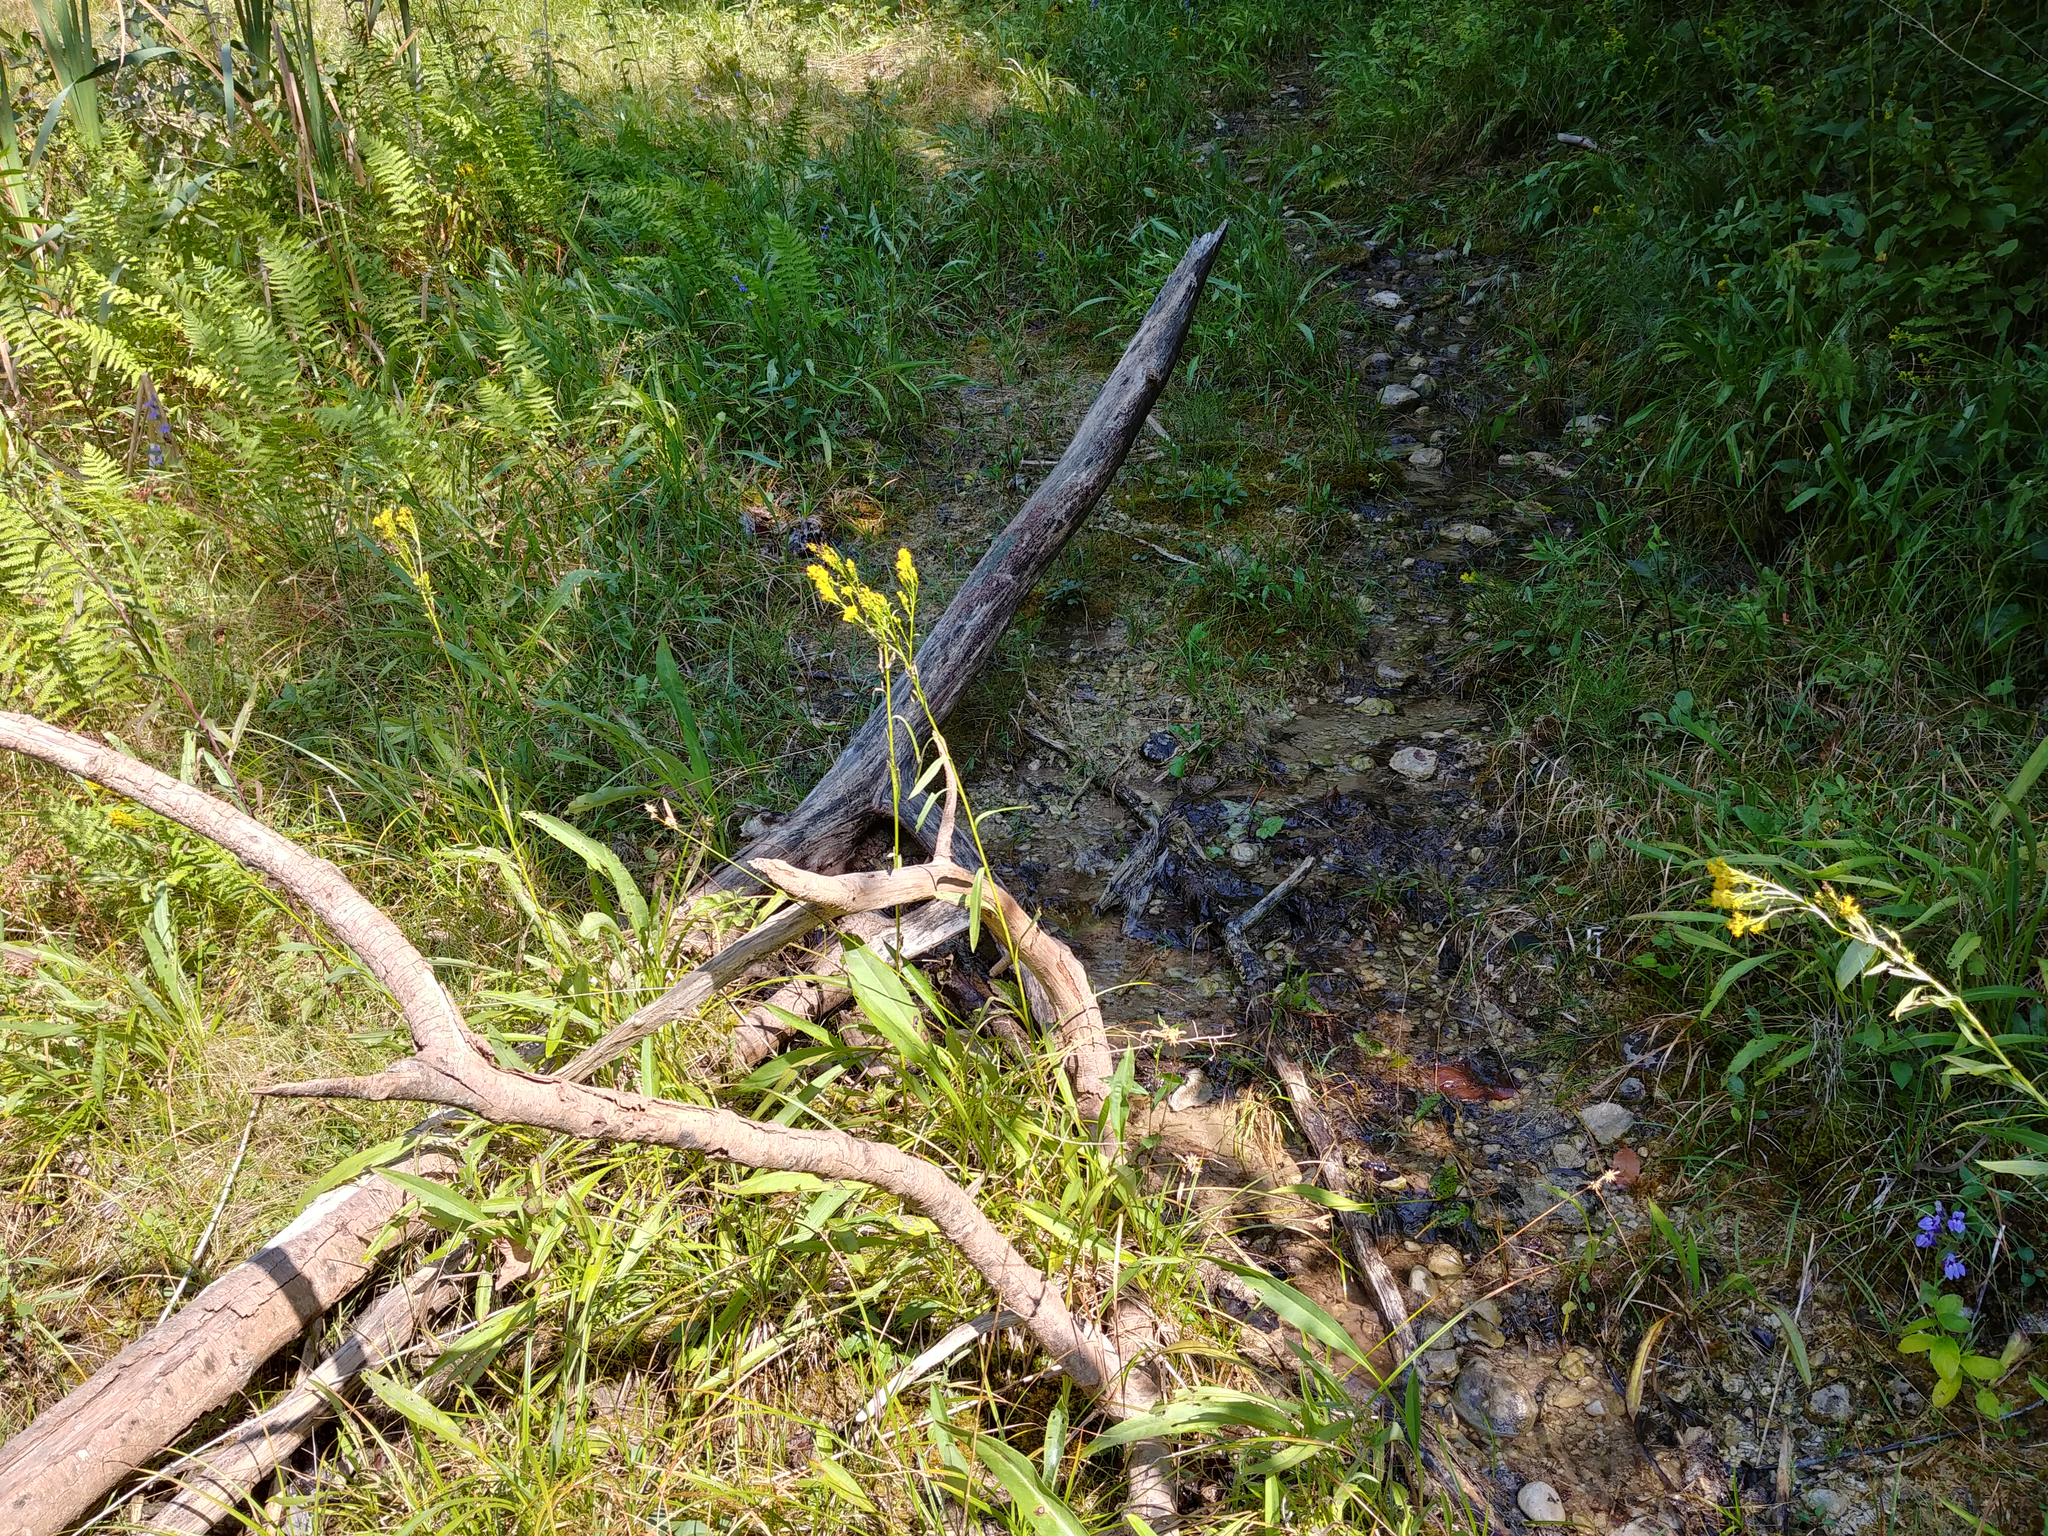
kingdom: Plantae
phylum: Tracheophyta
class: Magnoliopsida
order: Asterales
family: Asteraceae
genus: Solidago
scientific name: Solidago ohioensis
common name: Ohio goldenrod
